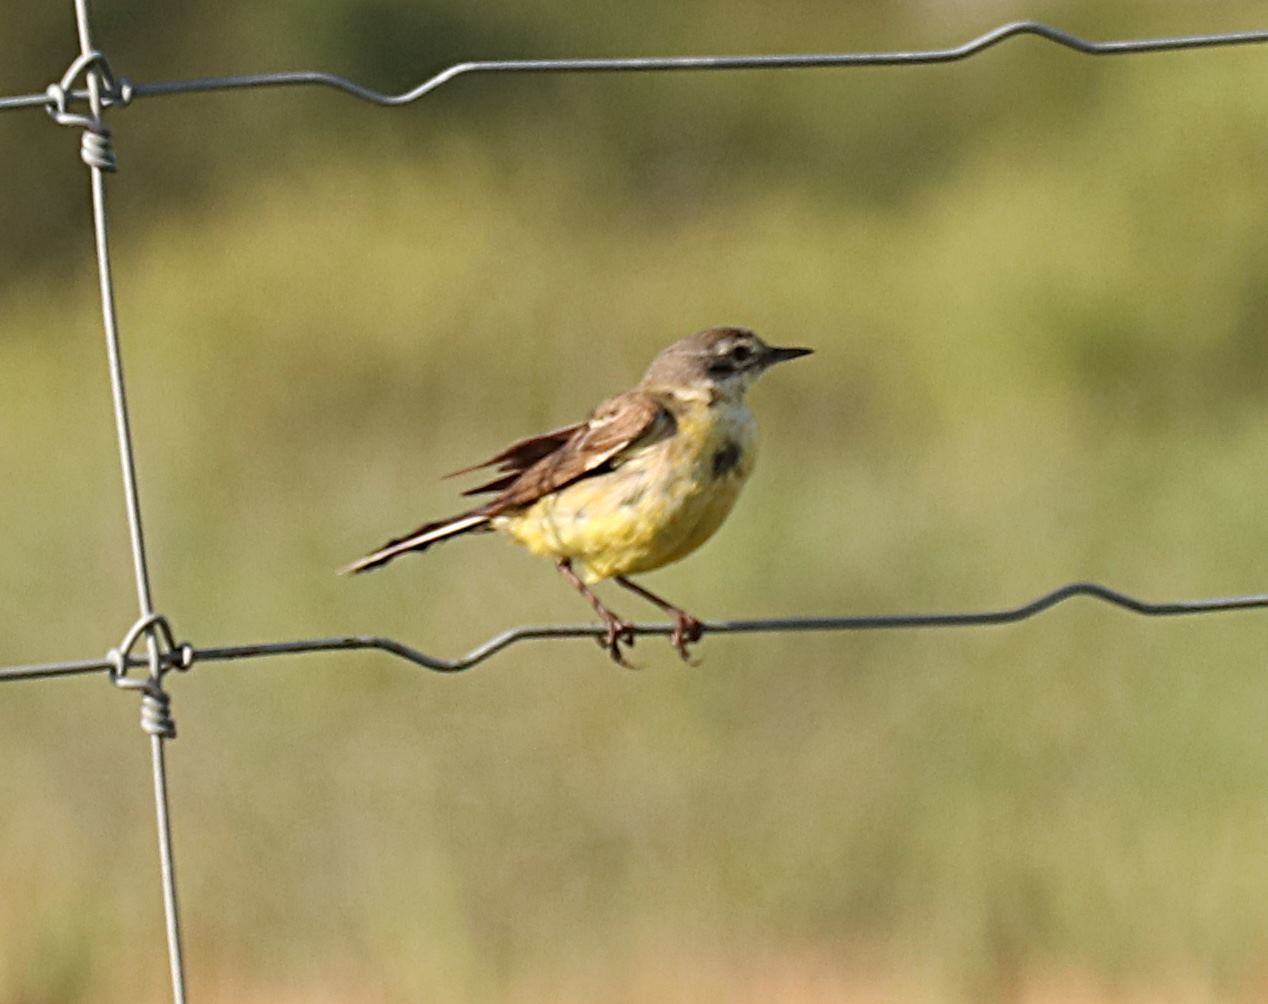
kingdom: Animalia
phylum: Chordata
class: Aves
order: Passeriformes
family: Motacillidae
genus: Motacilla
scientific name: Motacilla flava
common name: Western yellow wagtail
